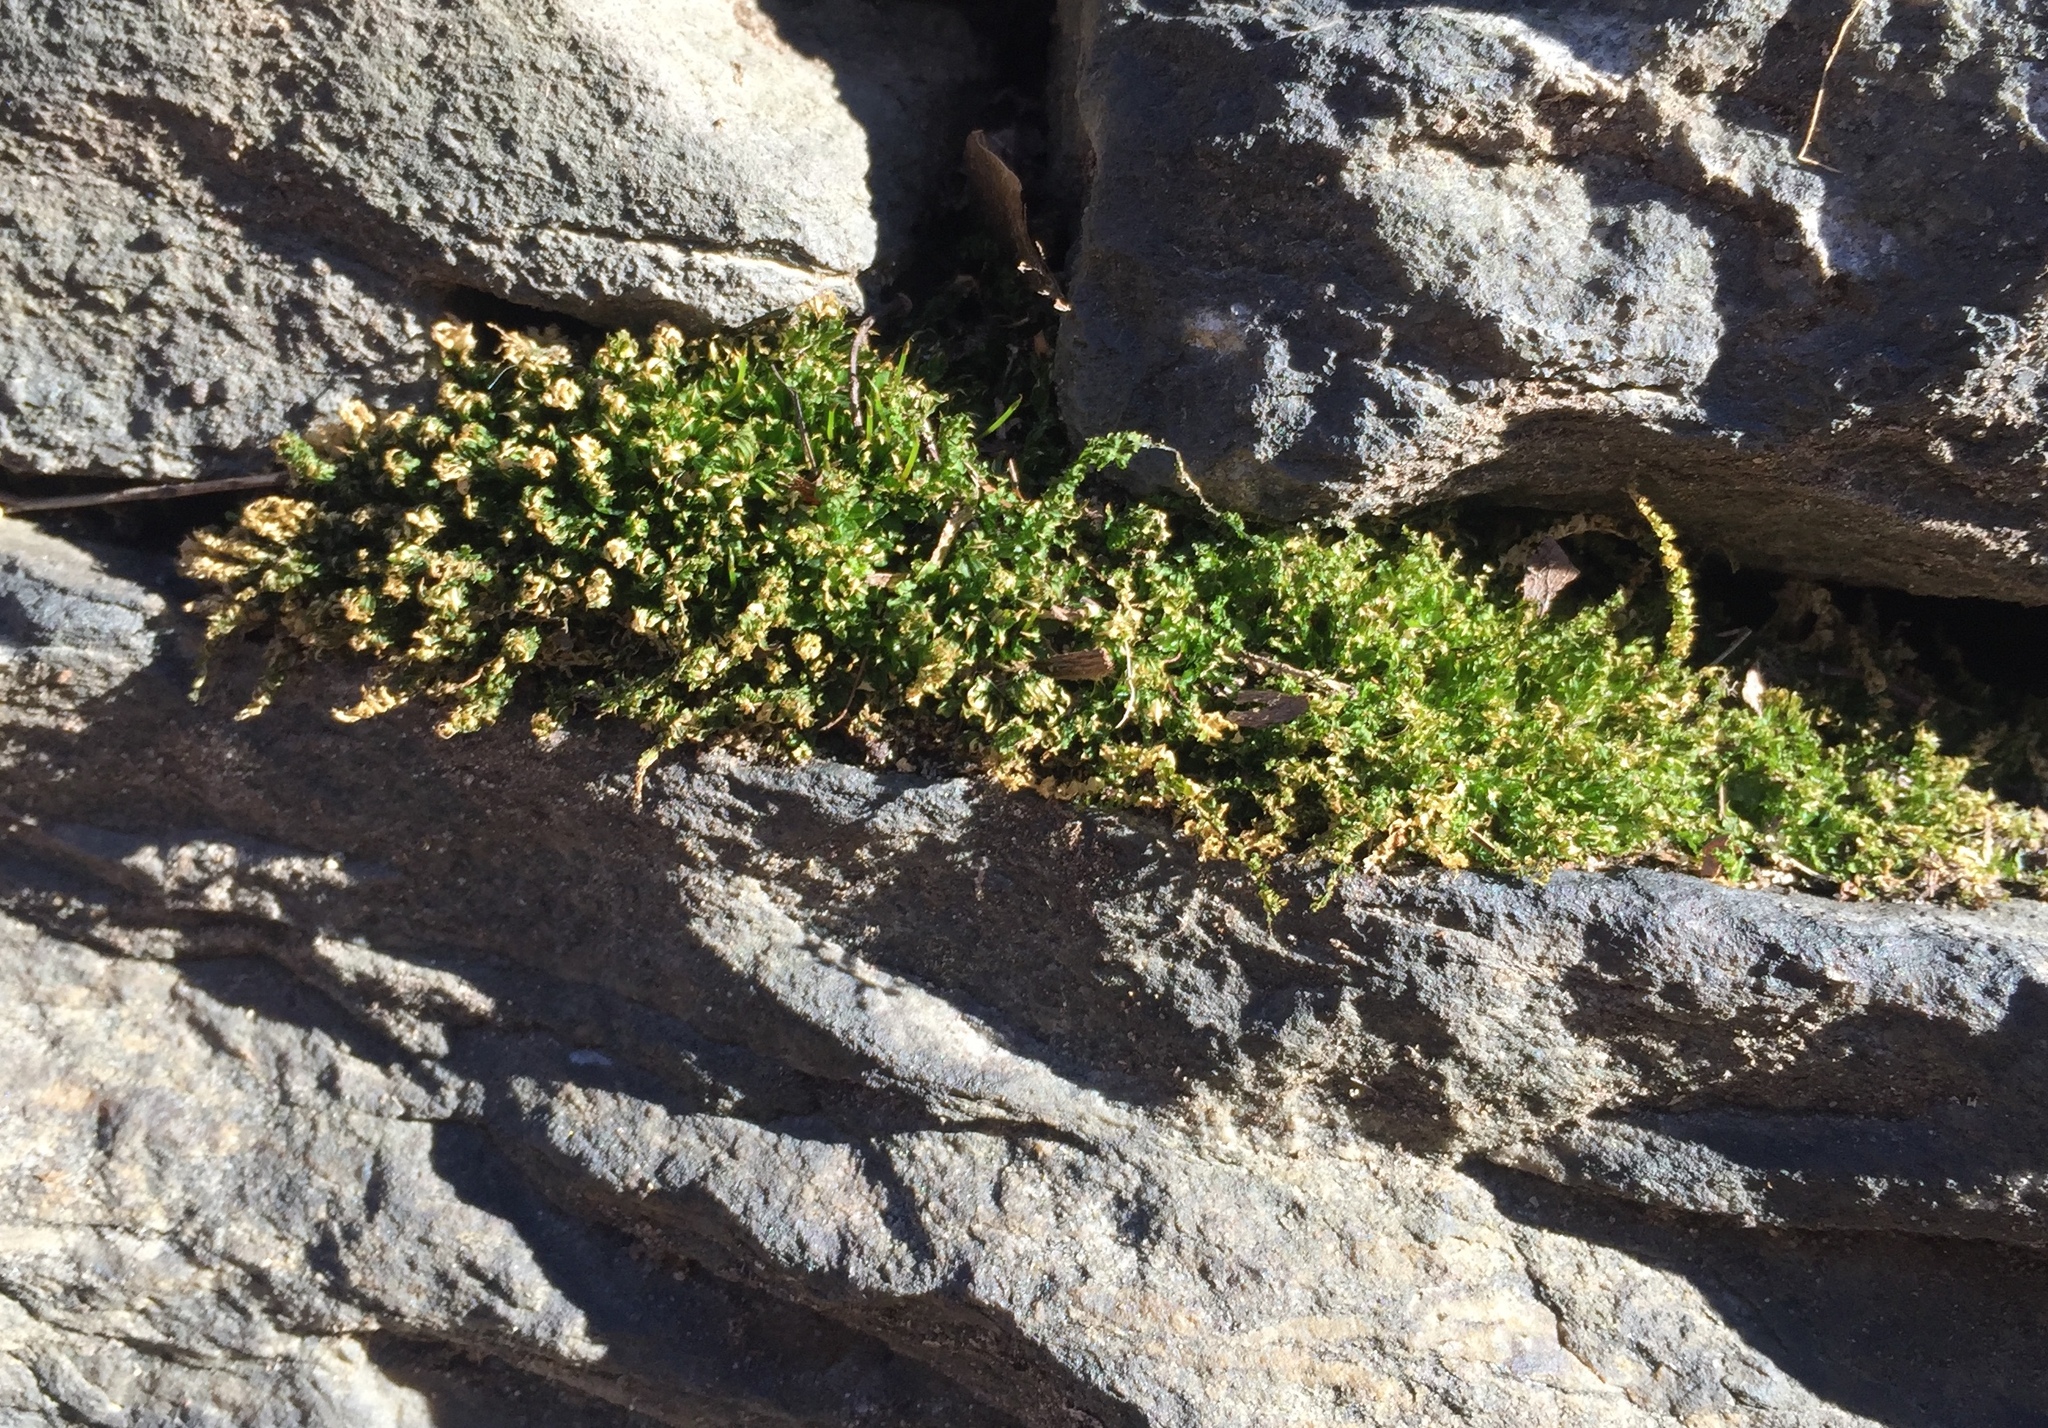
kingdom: Plantae
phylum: Bryophyta
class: Bryopsida
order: Bryales
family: Mniaceae
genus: Plagiomnium
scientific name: Plagiomnium cuspidatum
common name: Woodsy leafy moss
